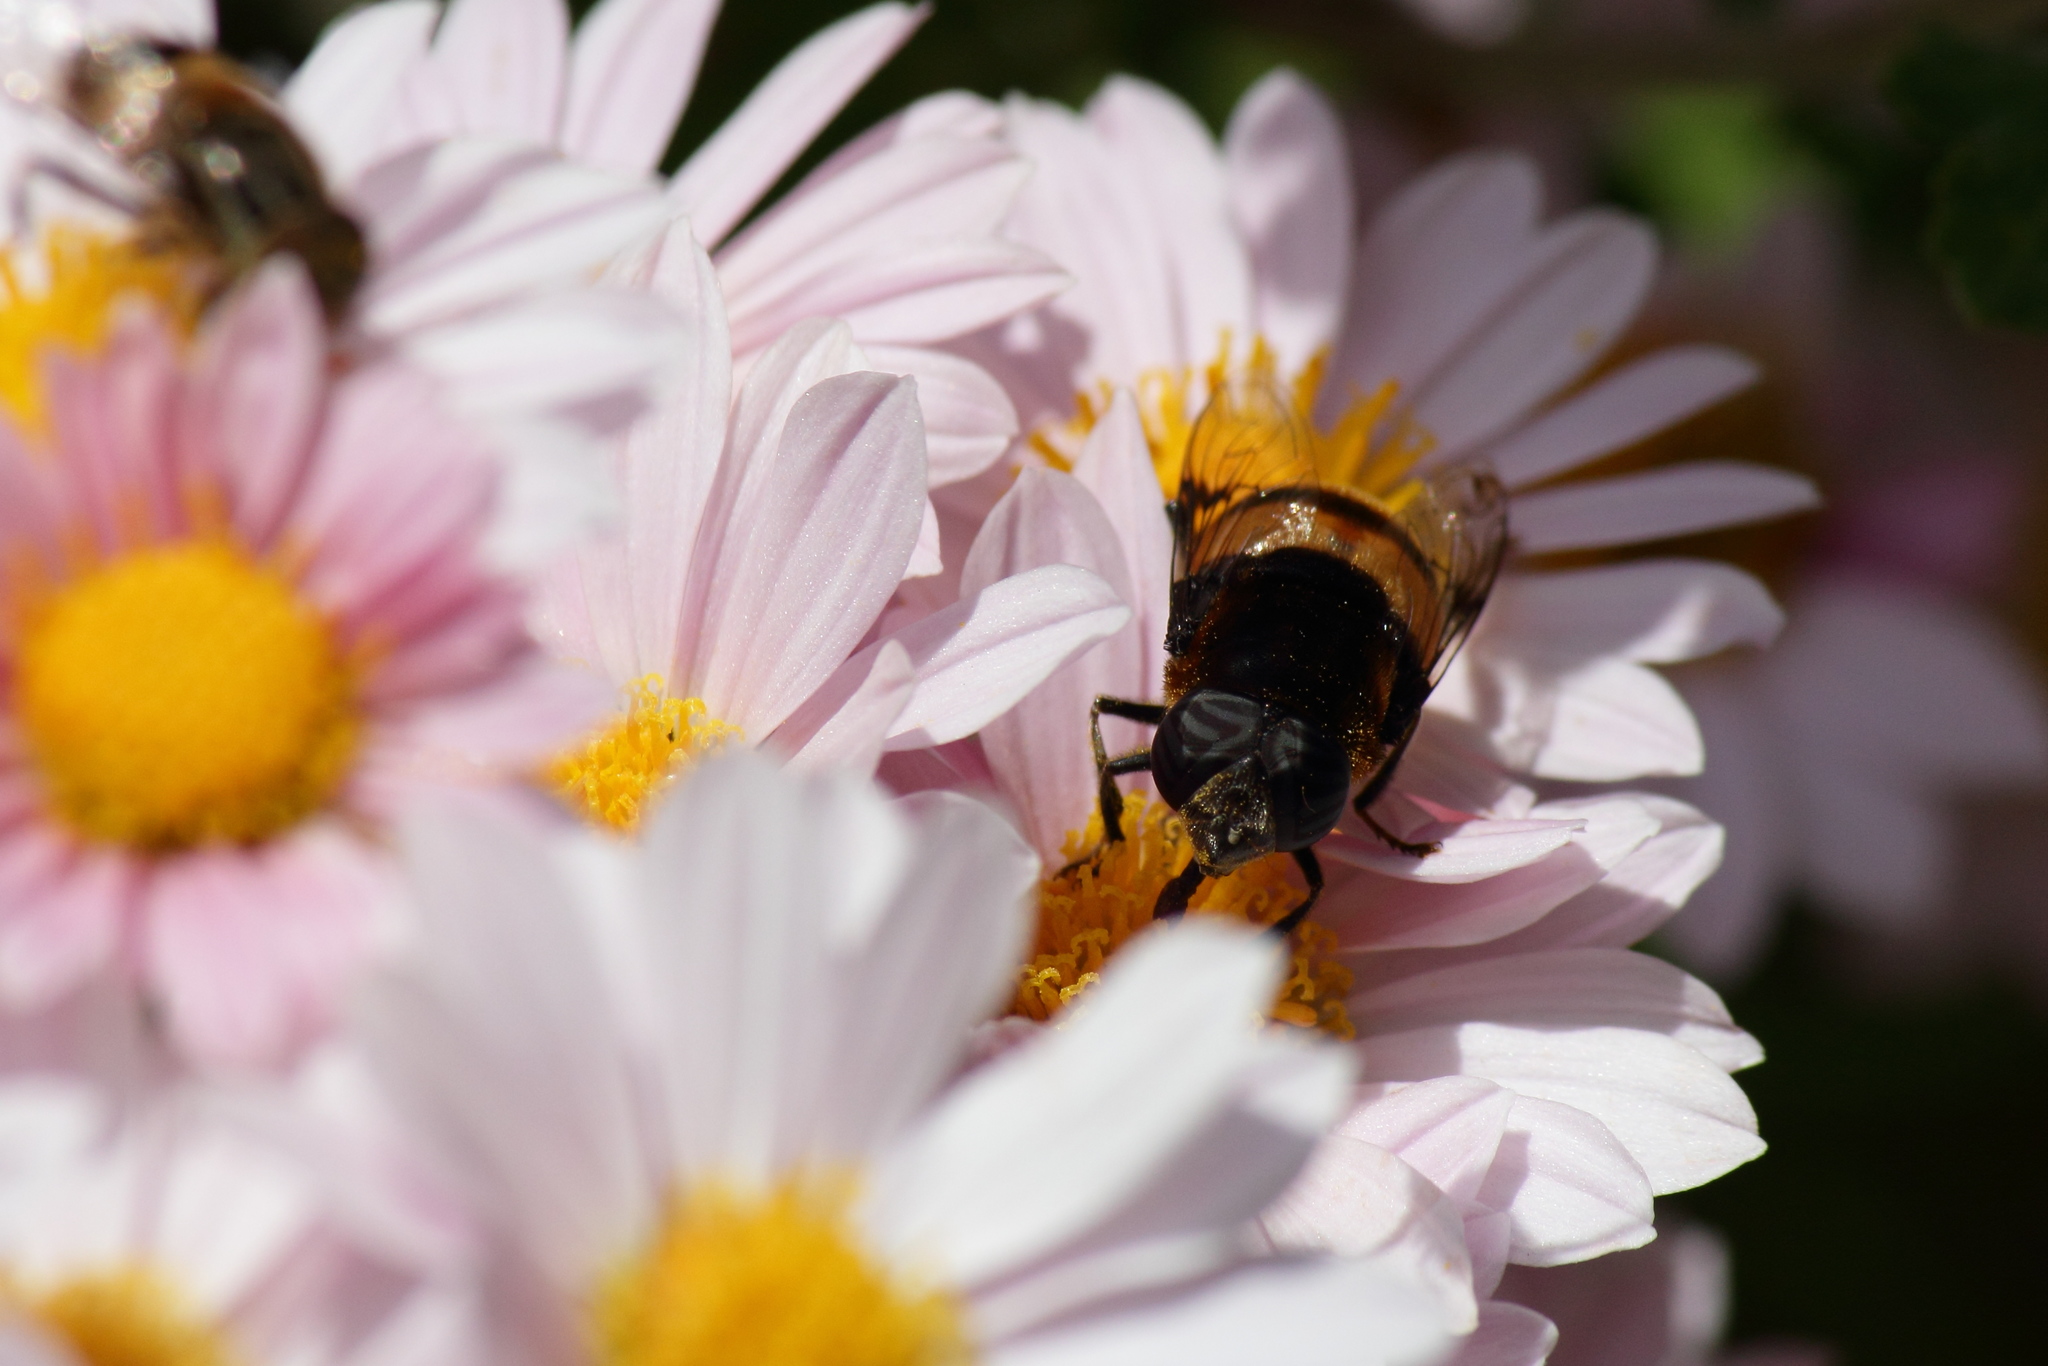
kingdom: Animalia
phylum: Arthropoda
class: Insecta
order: Diptera
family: Syrphidae
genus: Phytomia
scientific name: Phytomia zonata
